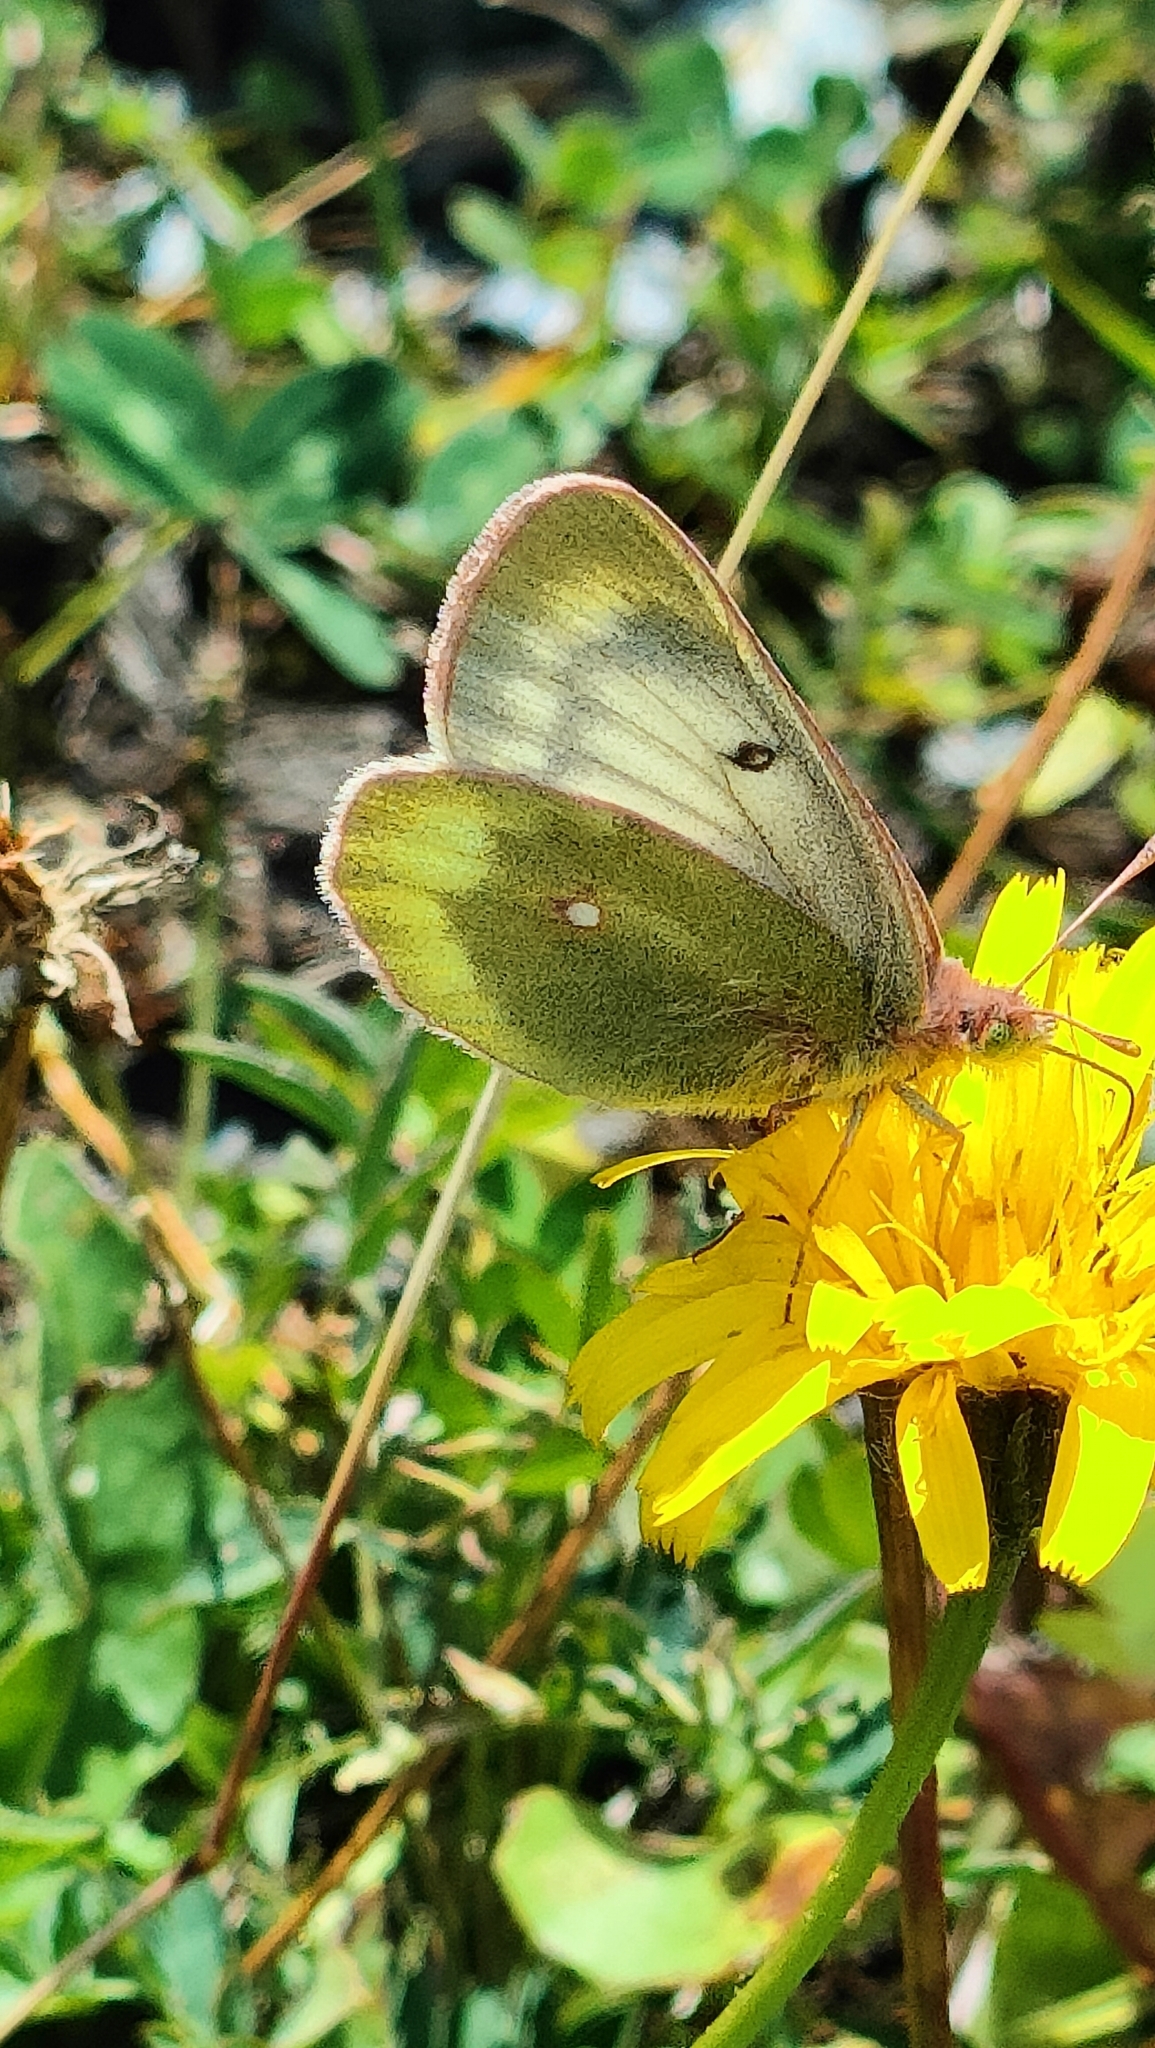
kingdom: Animalia
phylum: Arthropoda
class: Insecta
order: Lepidoptera
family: Pieridae
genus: Colias
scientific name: Colias phicomone
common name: Mountain clouded yellow
